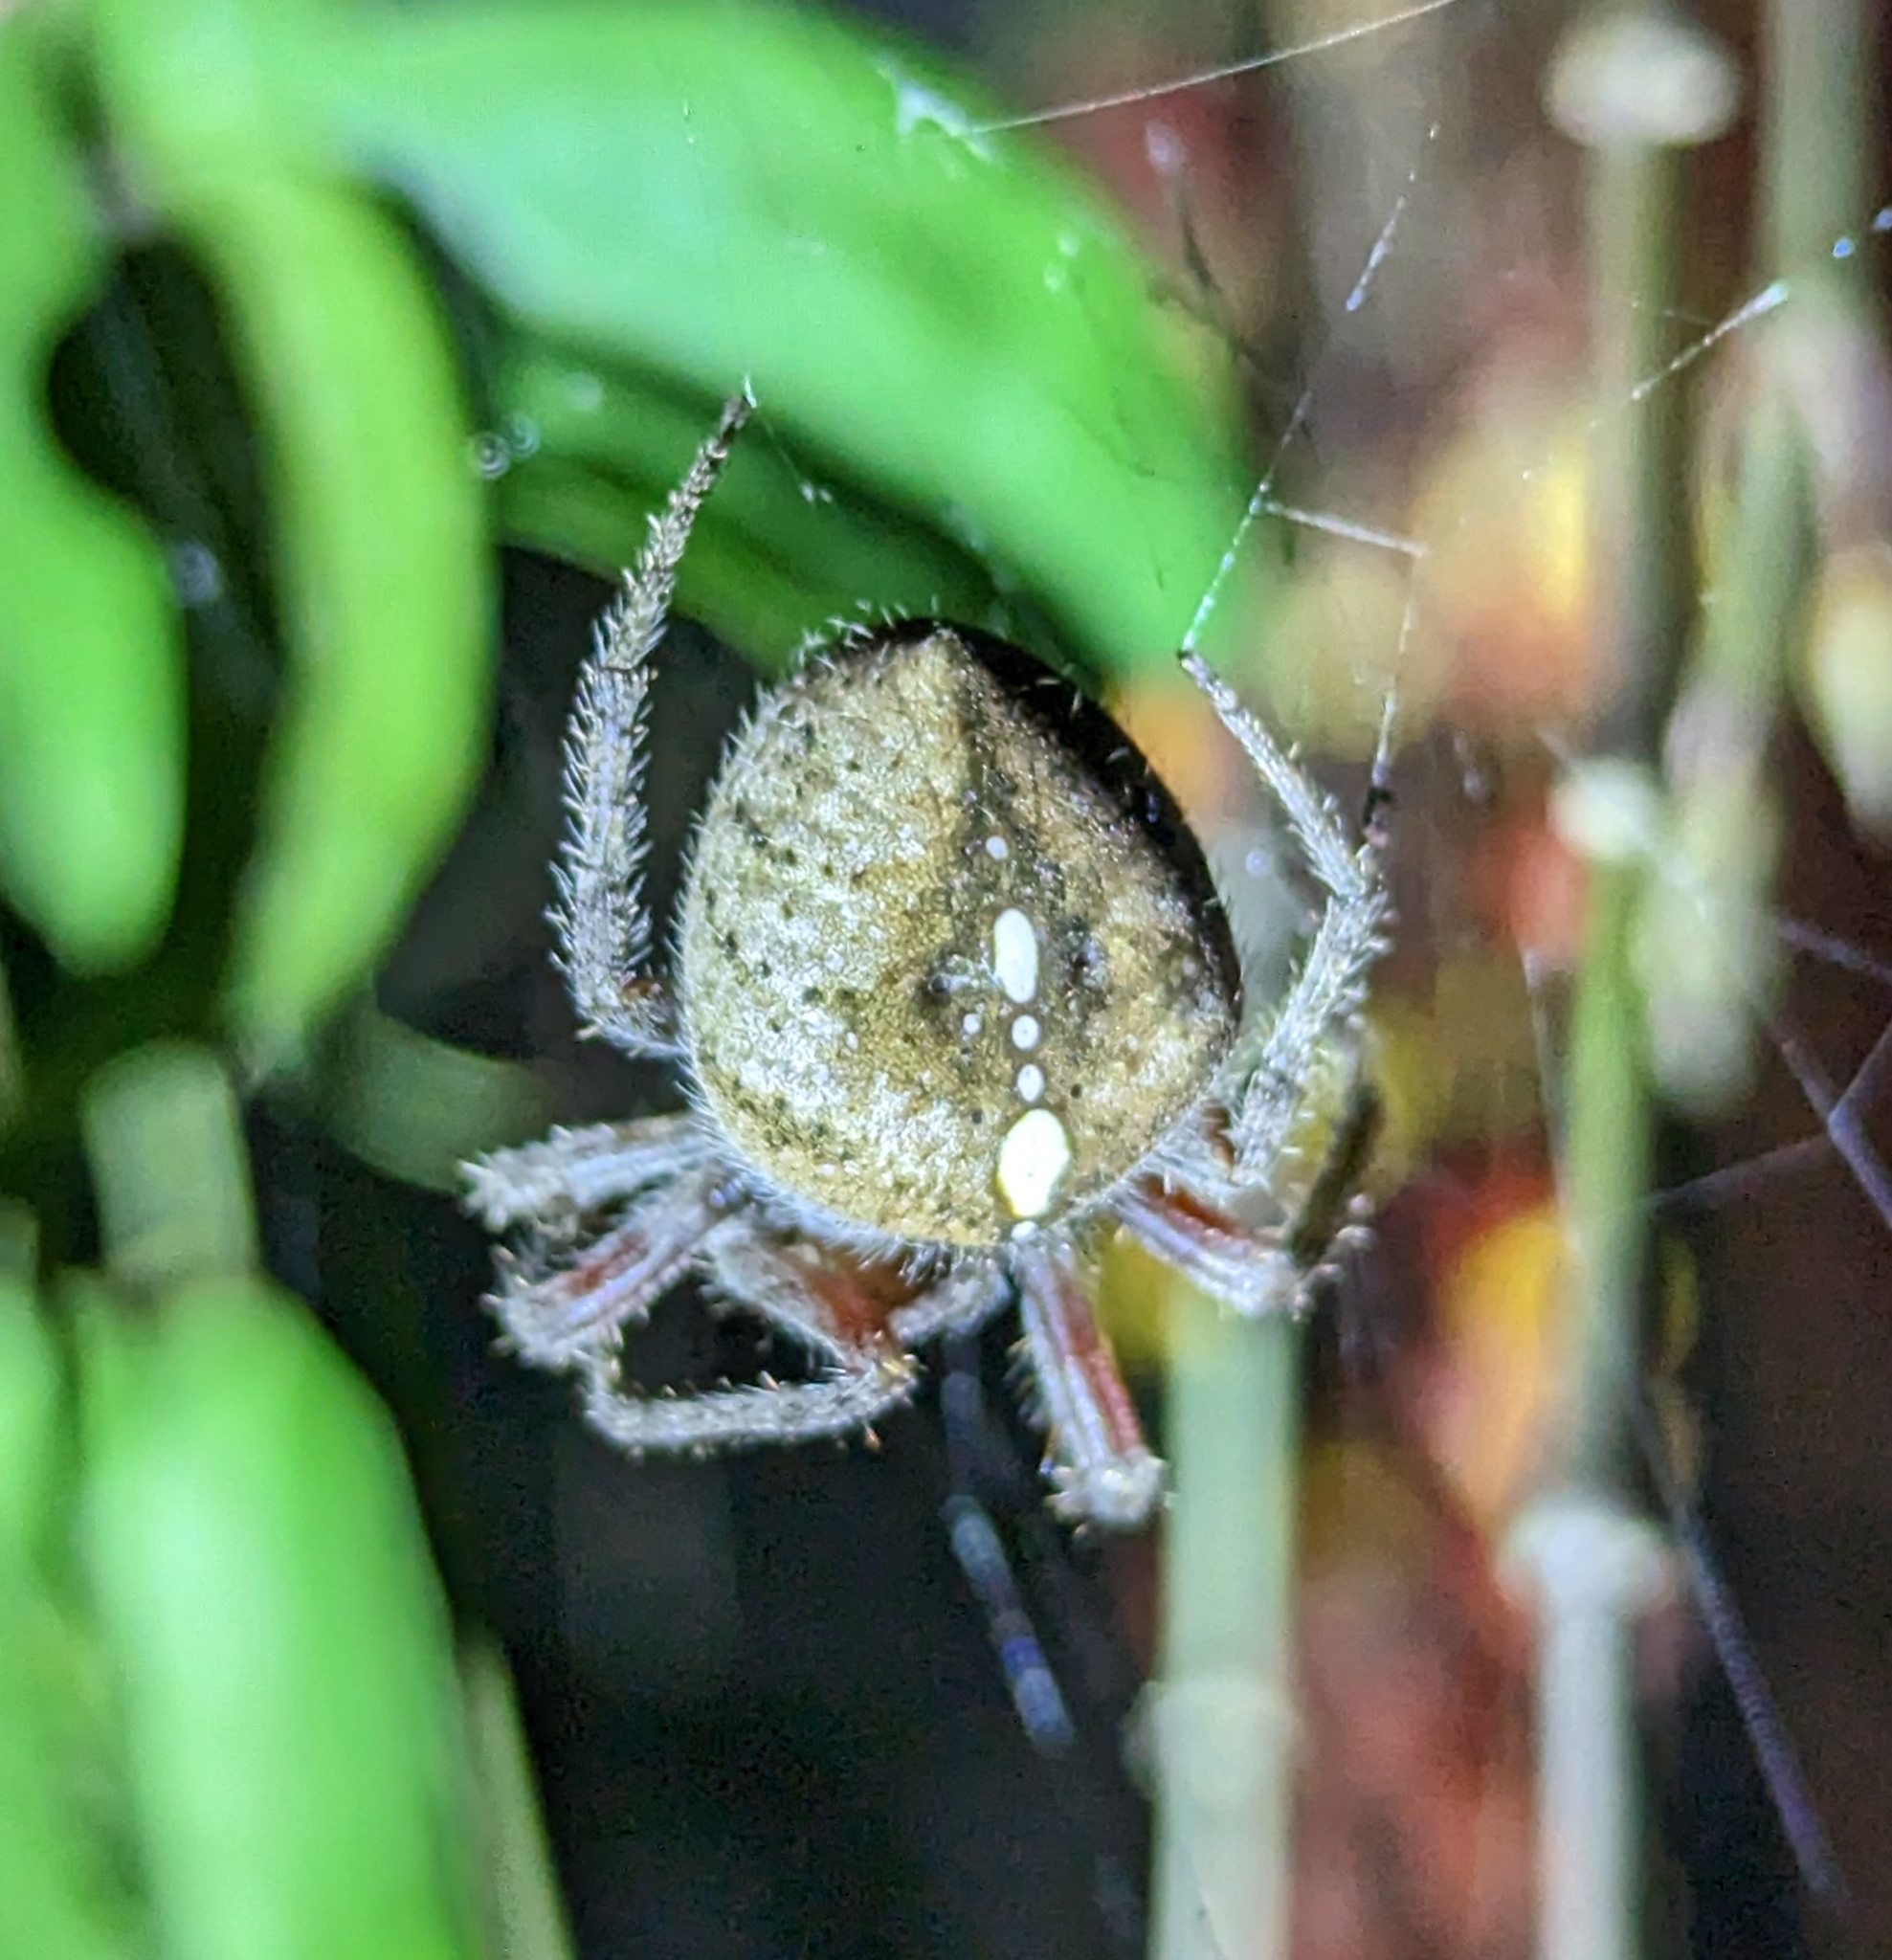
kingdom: Animalia
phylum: Arthropoda
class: Arachnida
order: Araneae
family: Araneidae
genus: Eriophora
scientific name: Eriophora edax
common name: Orb weavers
